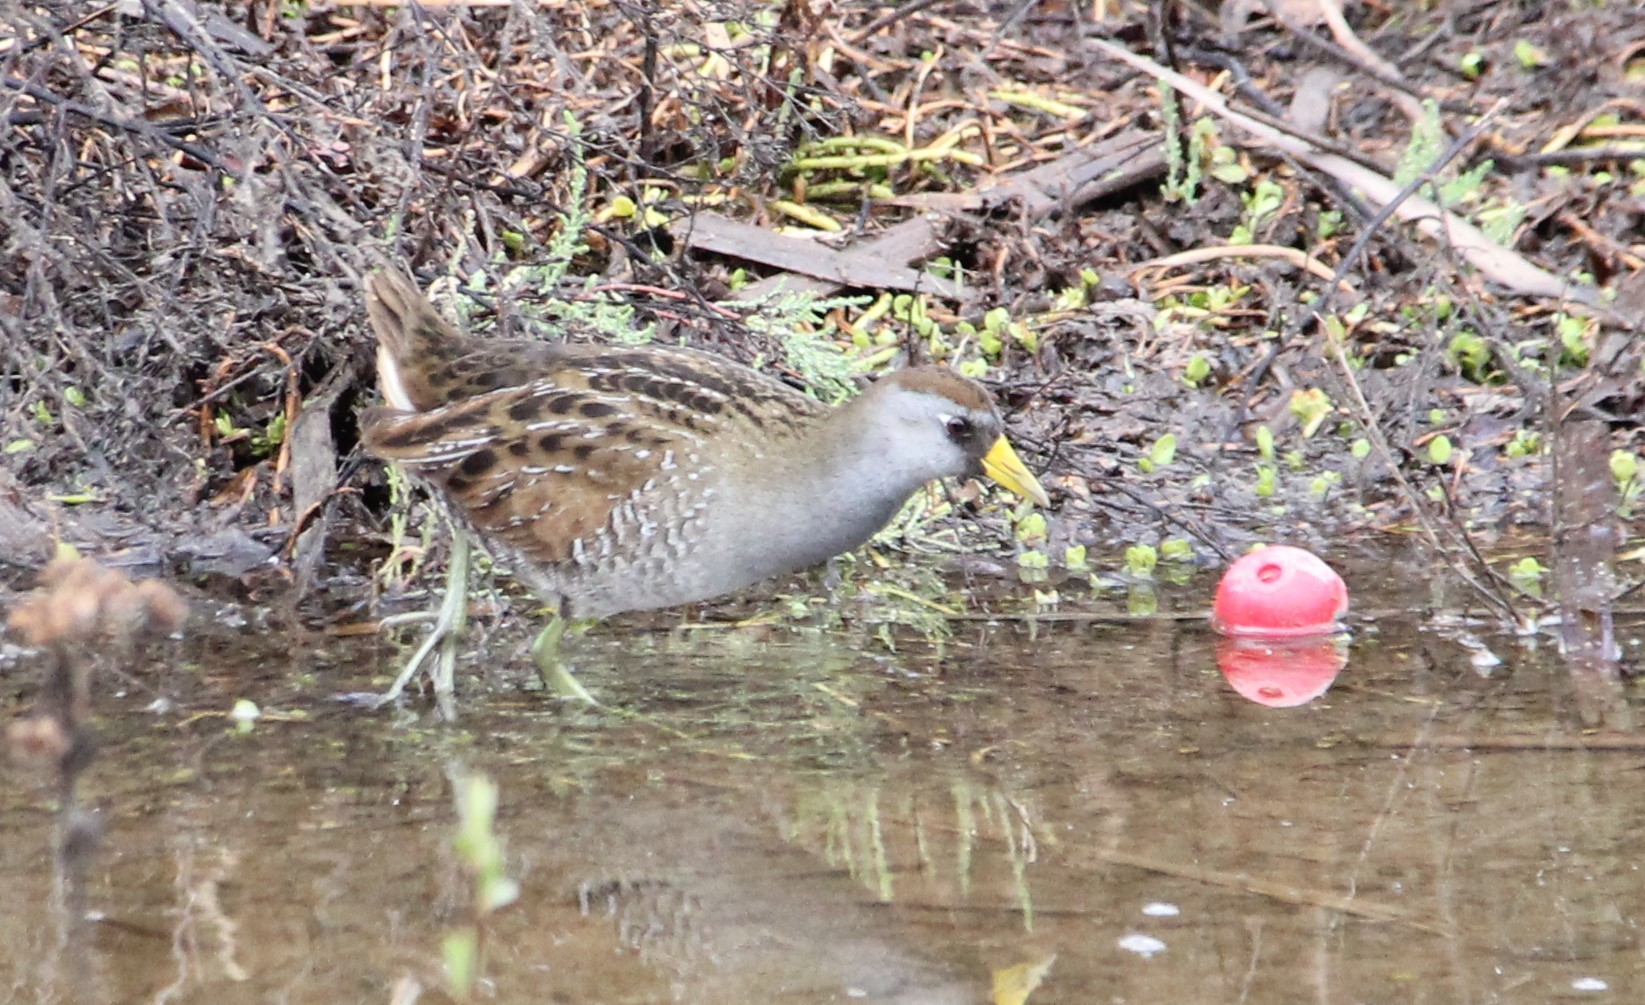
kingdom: Animalia
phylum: Chordata
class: Aves
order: Gruiformes
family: Rallidae
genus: Porzana
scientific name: Porzana carolina
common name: Sora
